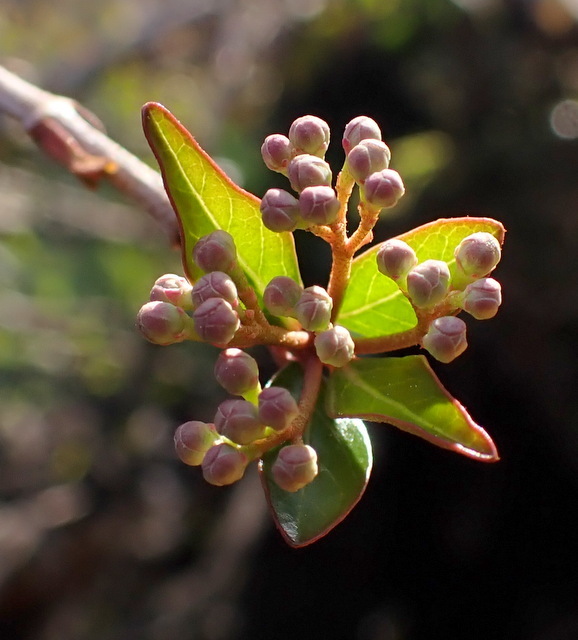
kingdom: Plantae
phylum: Tracheophyta
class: Magnoliopsida
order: Dipsacales
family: Viburnaceae
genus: Viburnum
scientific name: Viburnum obovatum
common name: Walter's viburnum
